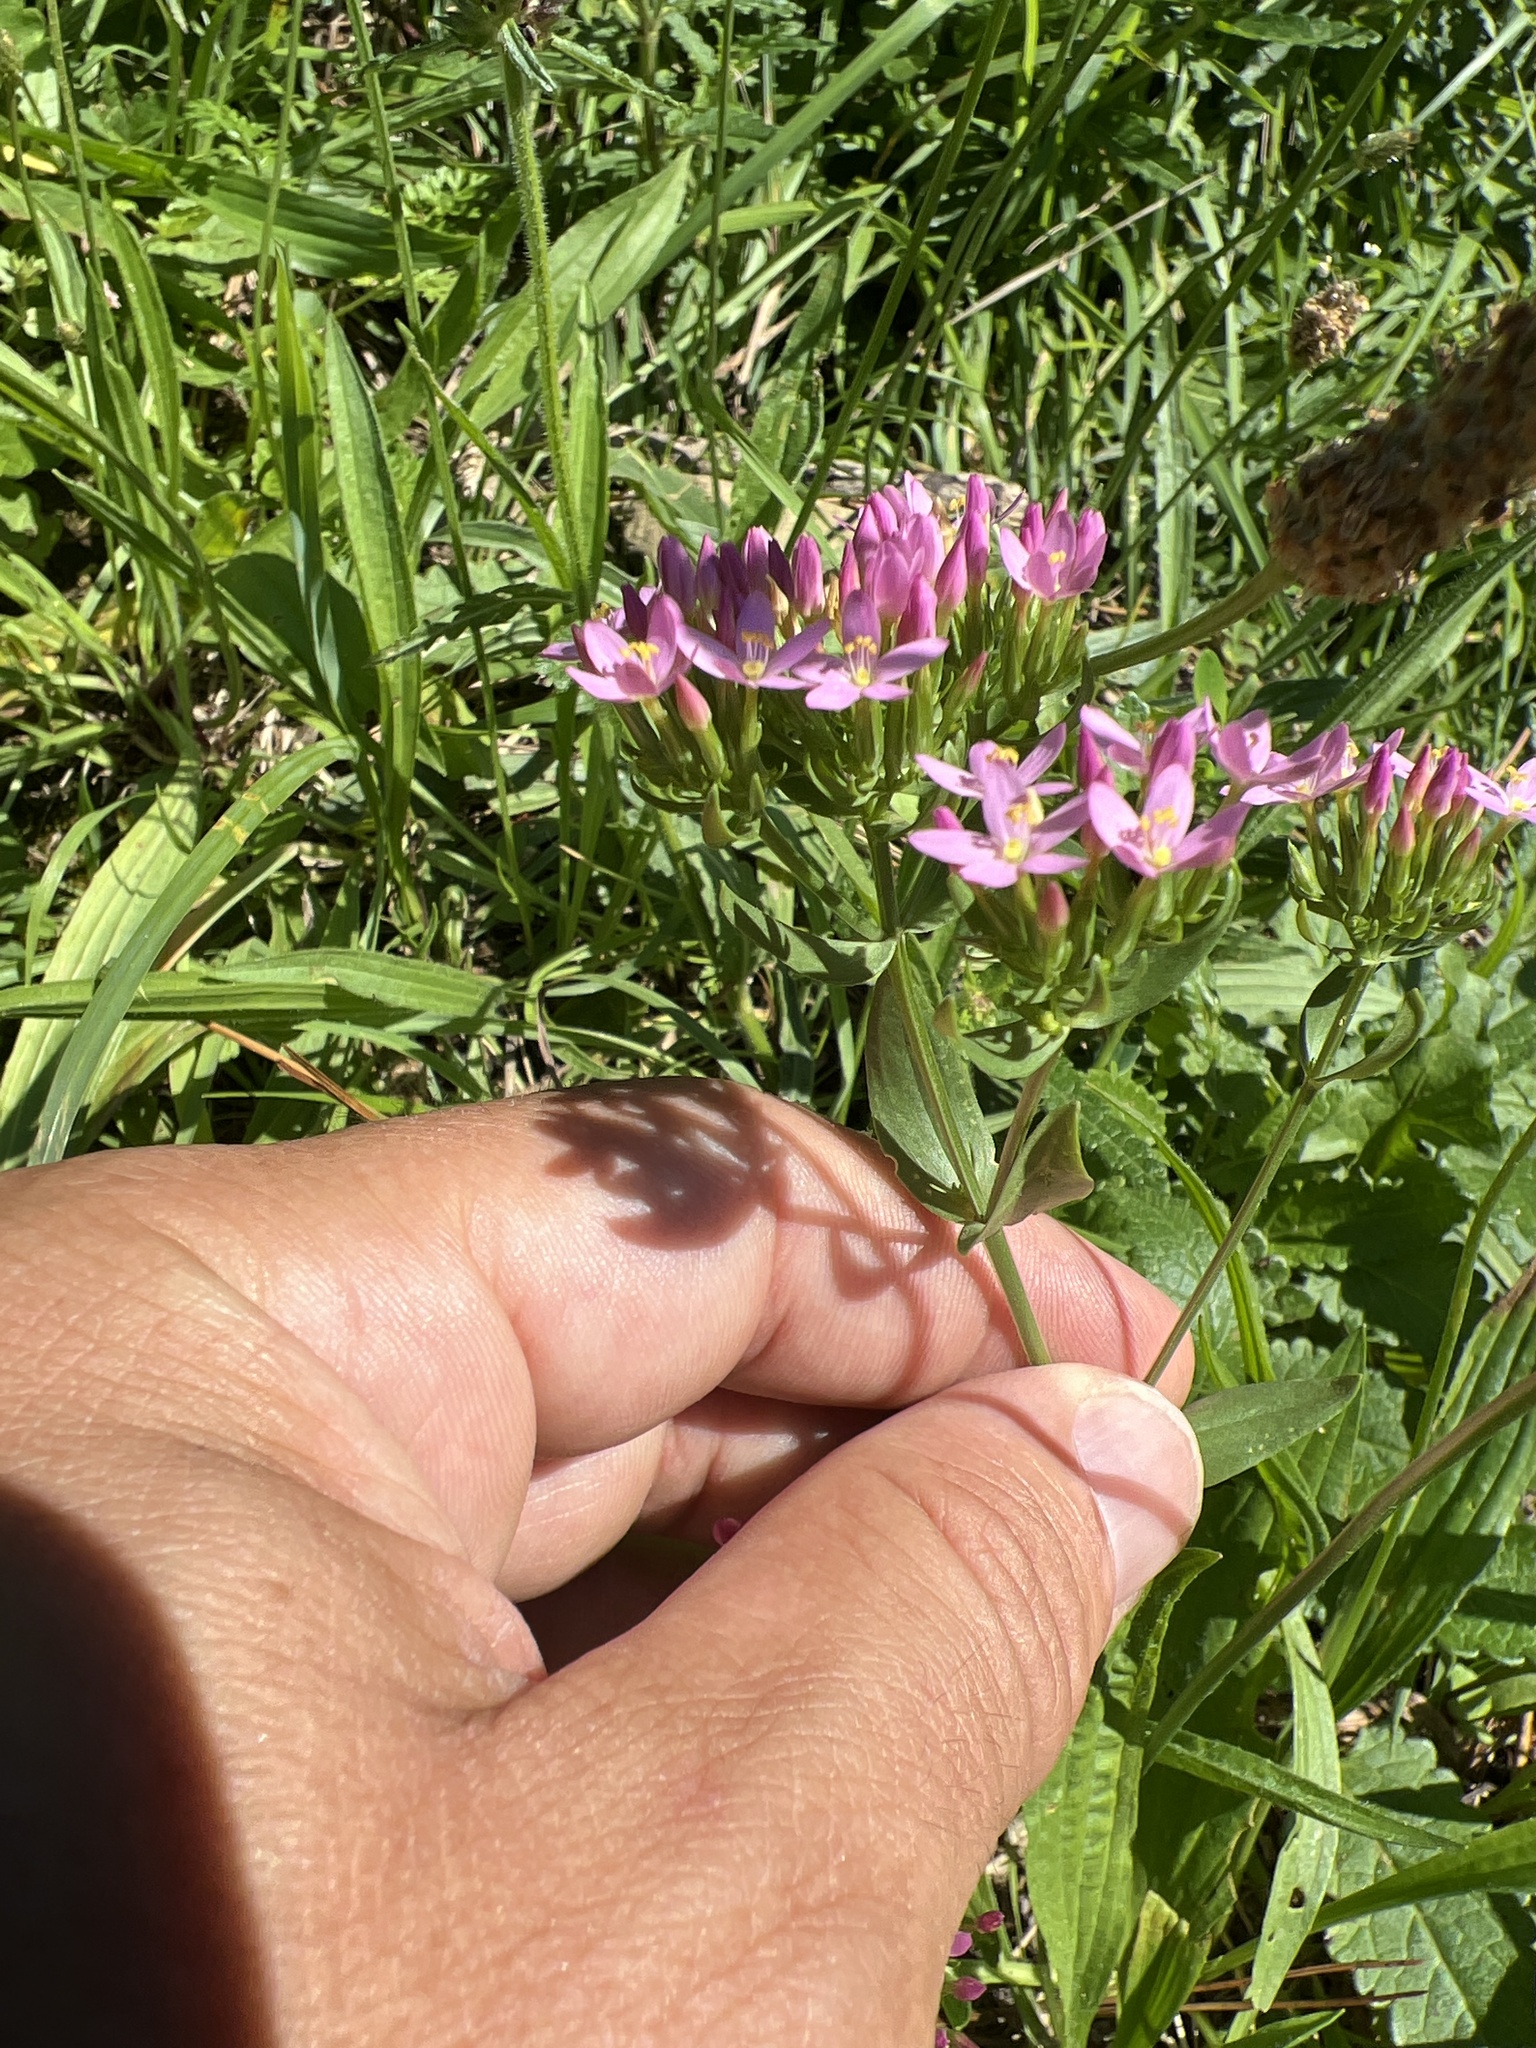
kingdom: Plantae
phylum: Tracheophyta
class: Magnoliopsida
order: Gentianales
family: Gentianaceae
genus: Centaurium
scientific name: Centaurium erythraea
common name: Common centaury
